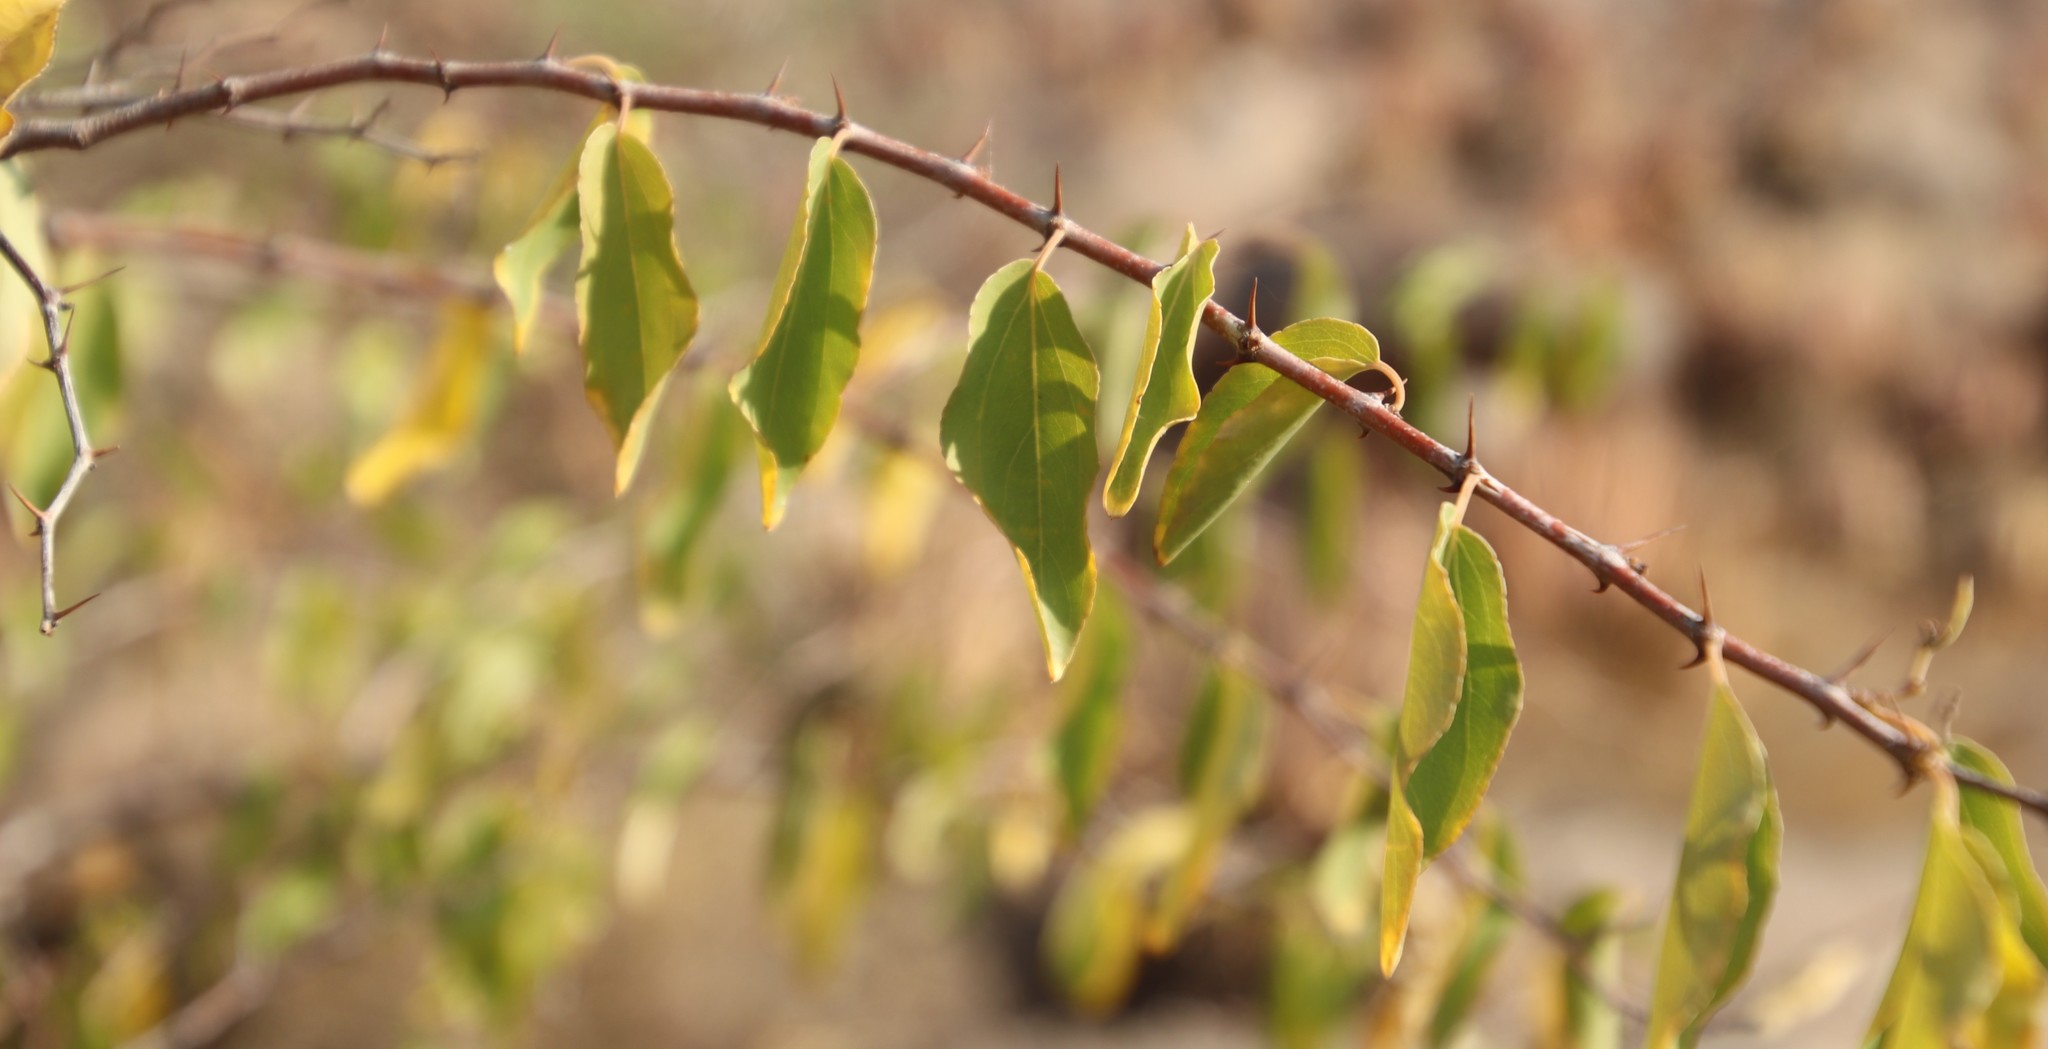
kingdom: Plantae
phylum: Tracheophyta
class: Magnoliopsida
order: Rosales
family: Rhamnaceae
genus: Ziziphus
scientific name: Ziziphus mucronata
